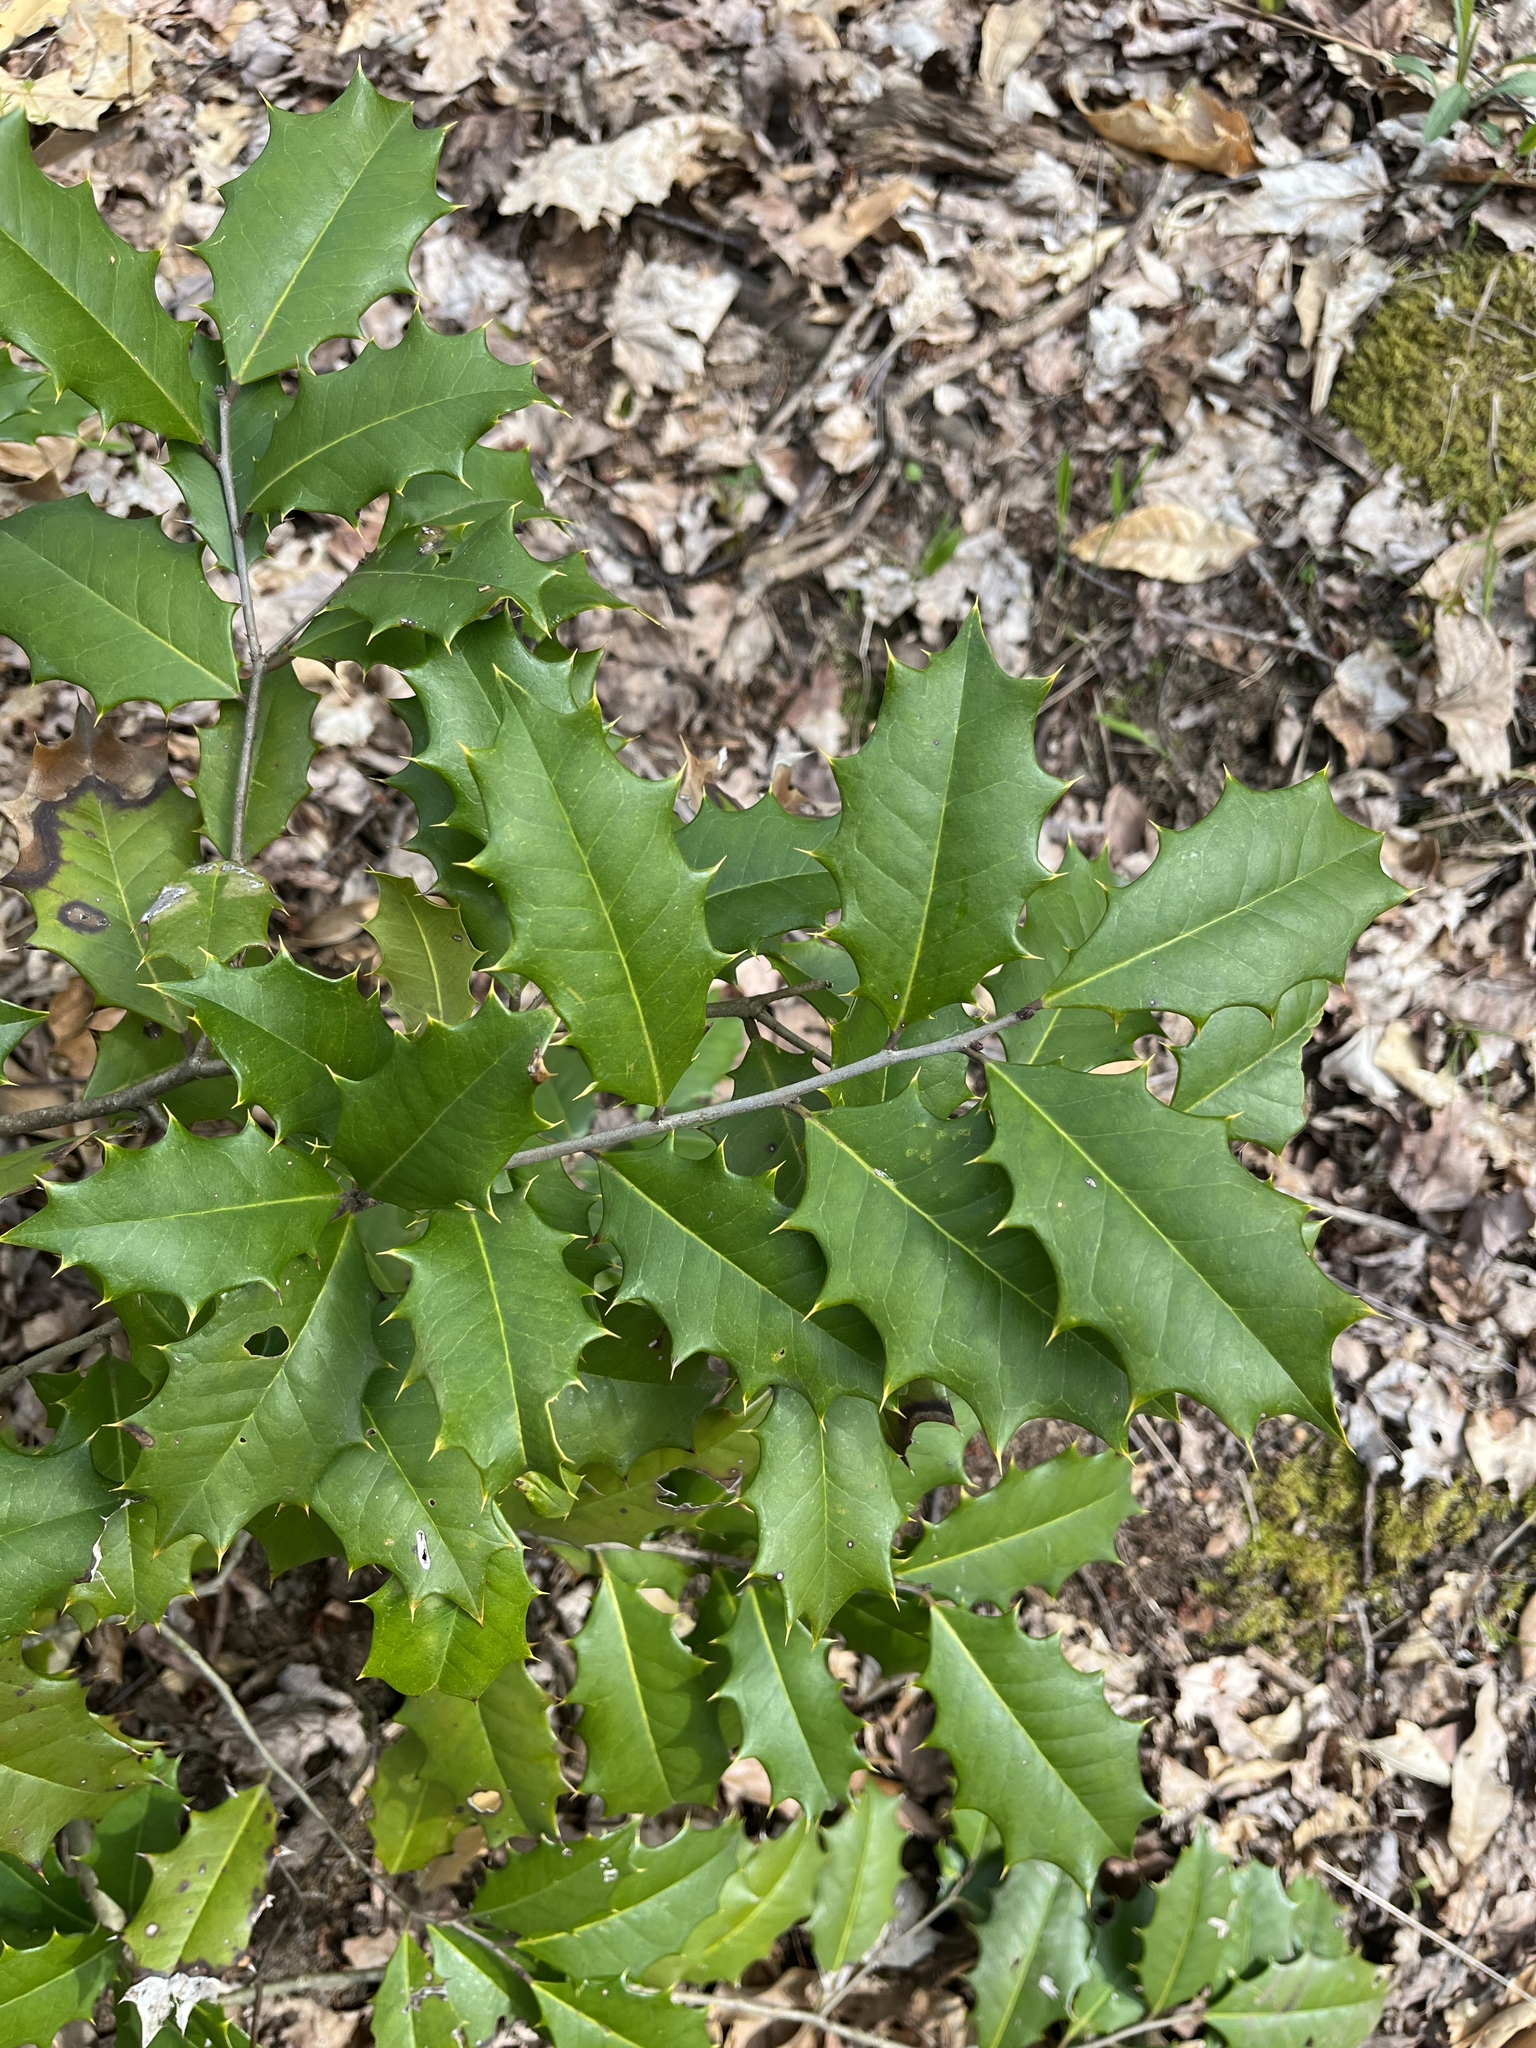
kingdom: Plantae
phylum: Tracheophyta
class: Magnoliopsida
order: Aquifoliales
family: Aquifoliaceae
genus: Ilex
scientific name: Ilex opaca
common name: American holly
